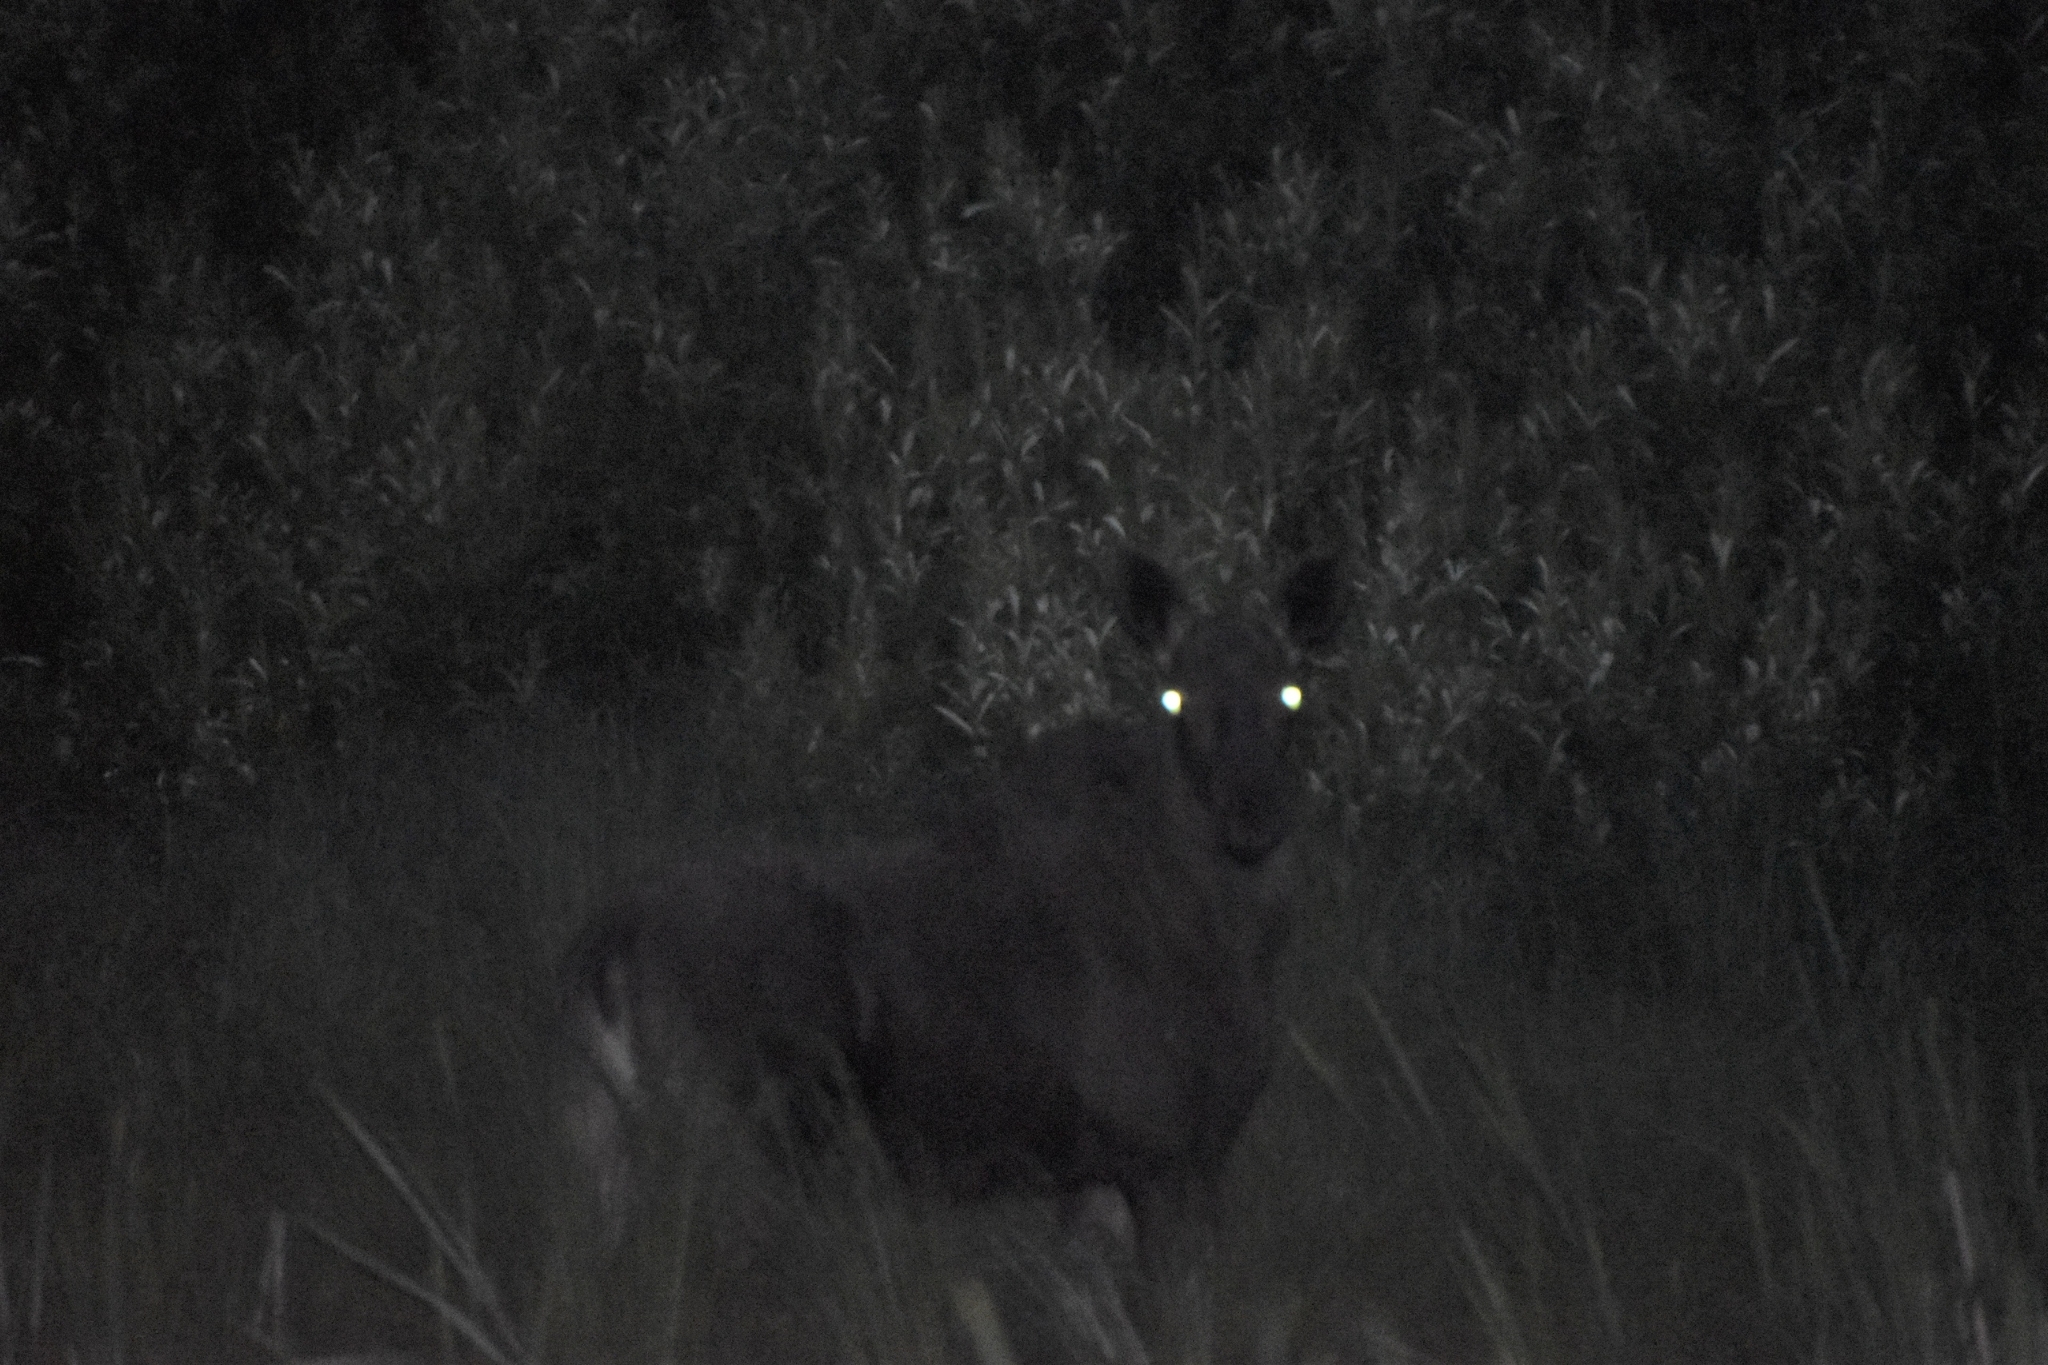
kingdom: Animalia
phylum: Chordata
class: Mammalia
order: Artiodactyla
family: Cervidae
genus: Alces
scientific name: Alces alces
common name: Moose
